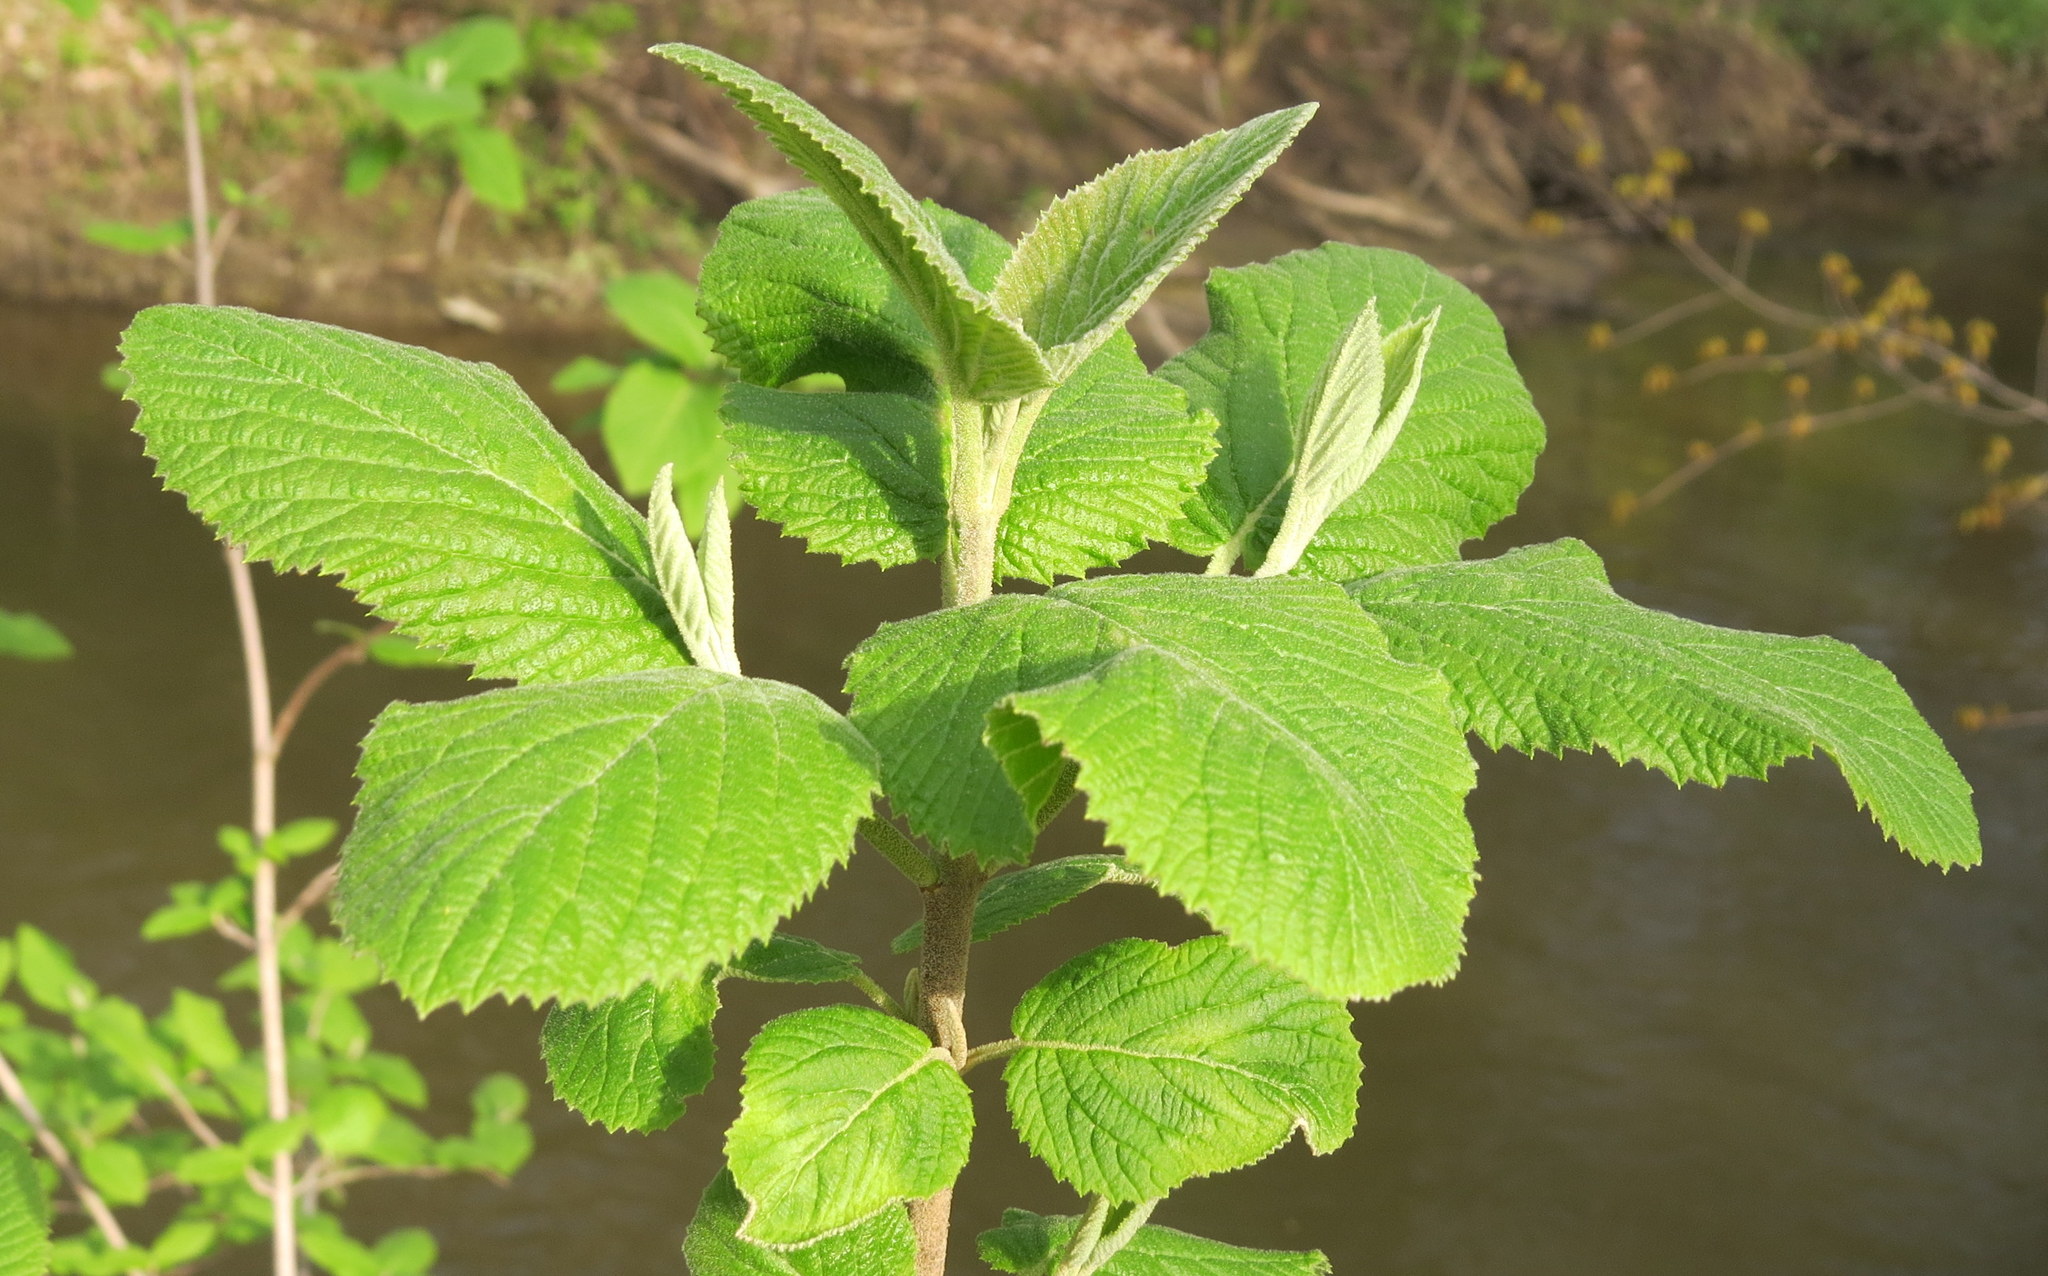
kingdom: Plantae
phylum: Tracheophyta
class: Magnoliopsida
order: Dipsacales
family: Viburnaceae
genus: Viburnum
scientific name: Viburnum lantana
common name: Wayfaring tree
